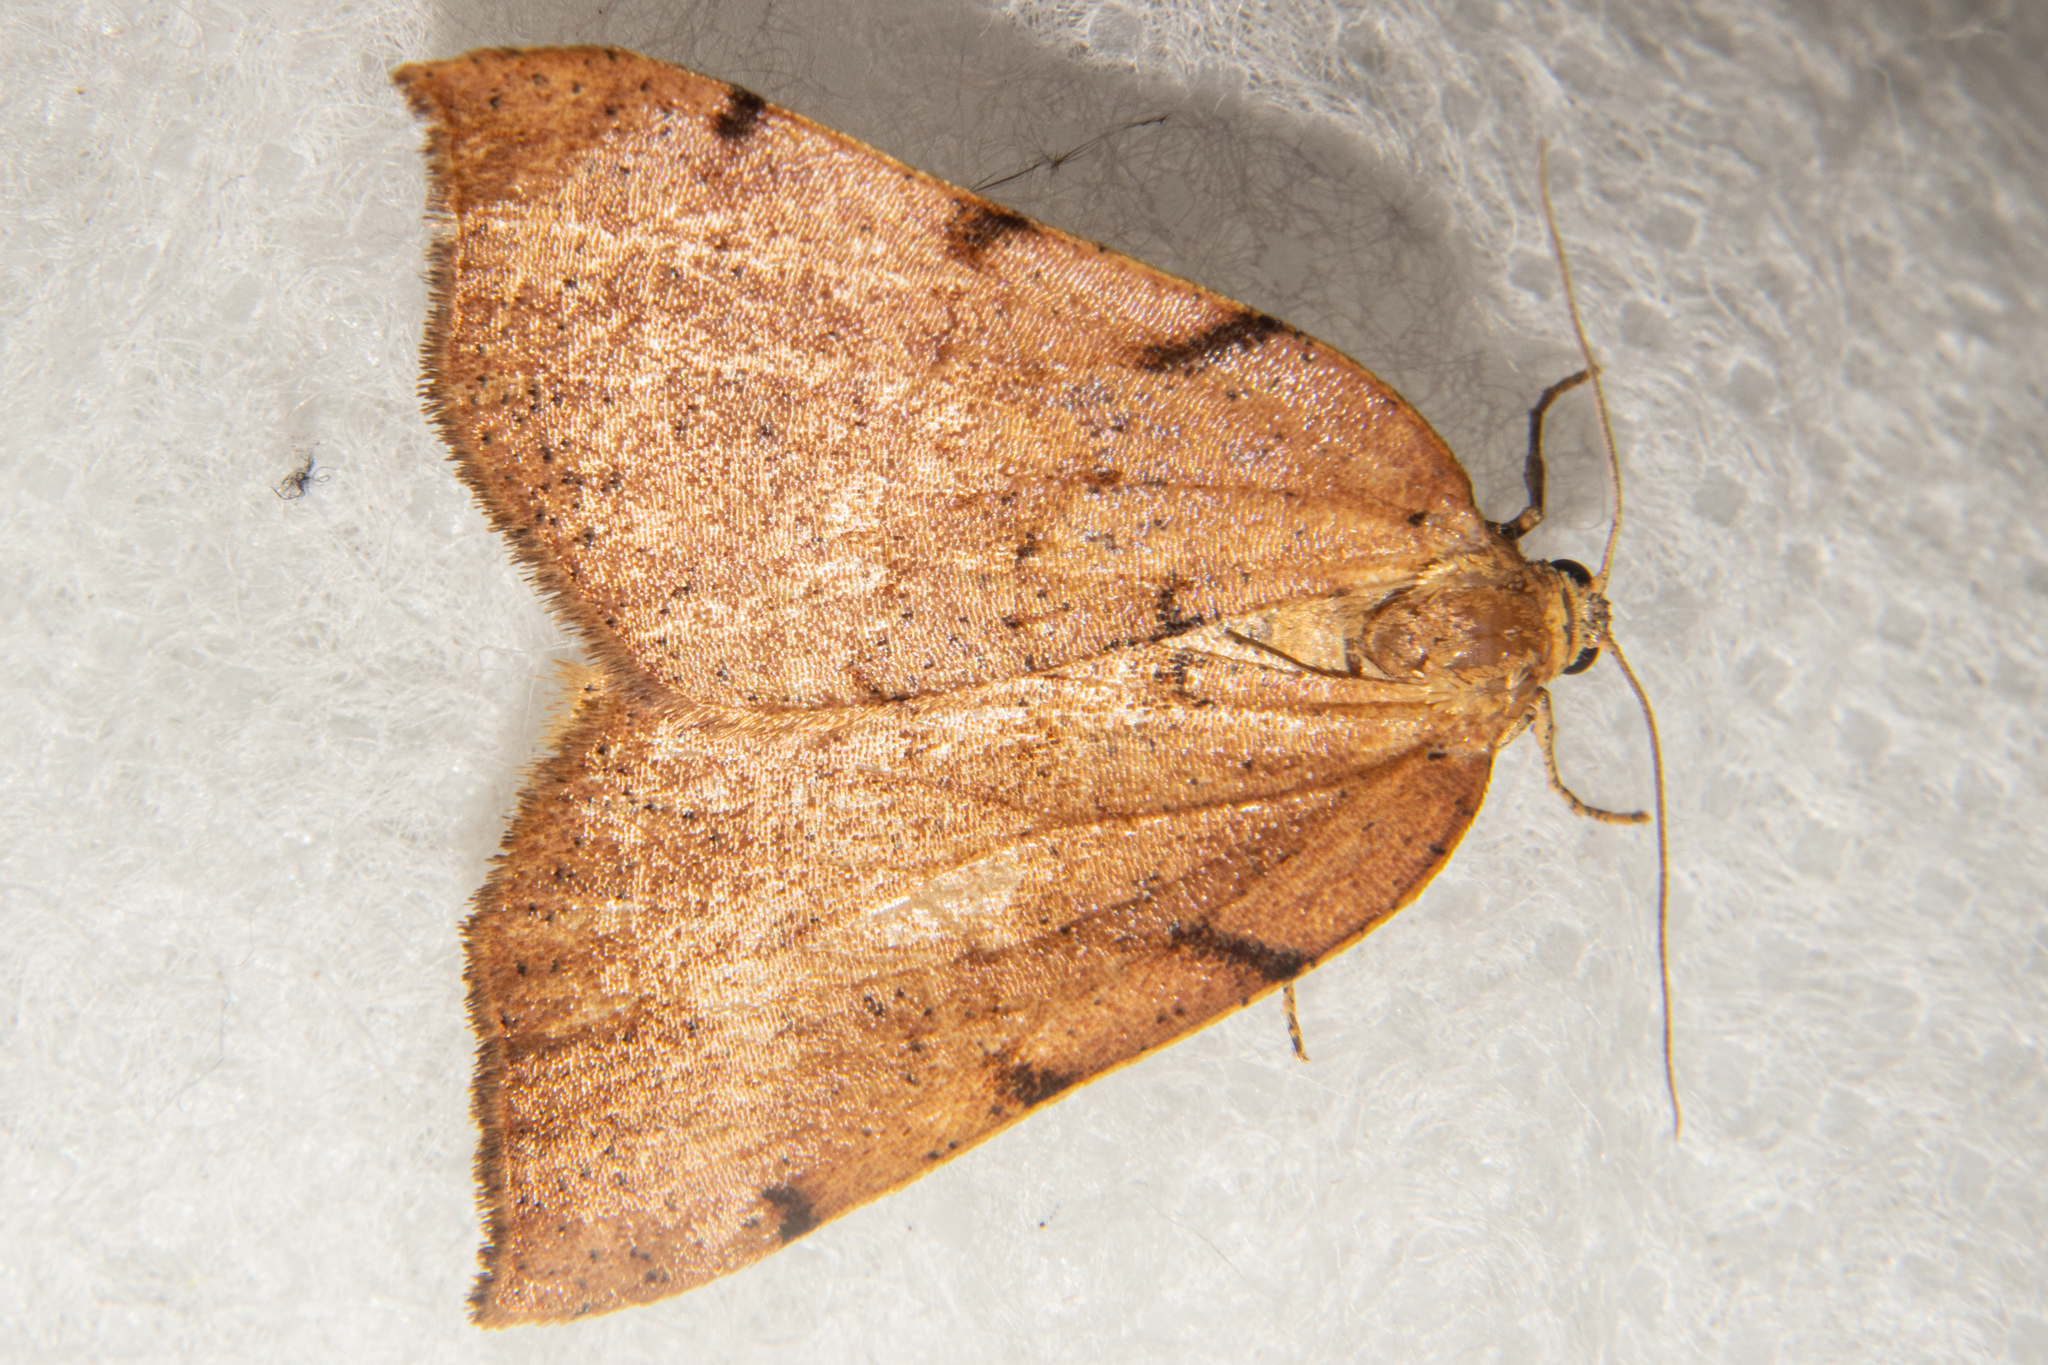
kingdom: Animalia
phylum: Arthropoda
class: Insecta
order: Lepidoptera
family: Geometridae
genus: Sestra
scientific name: Sestra humeraria
